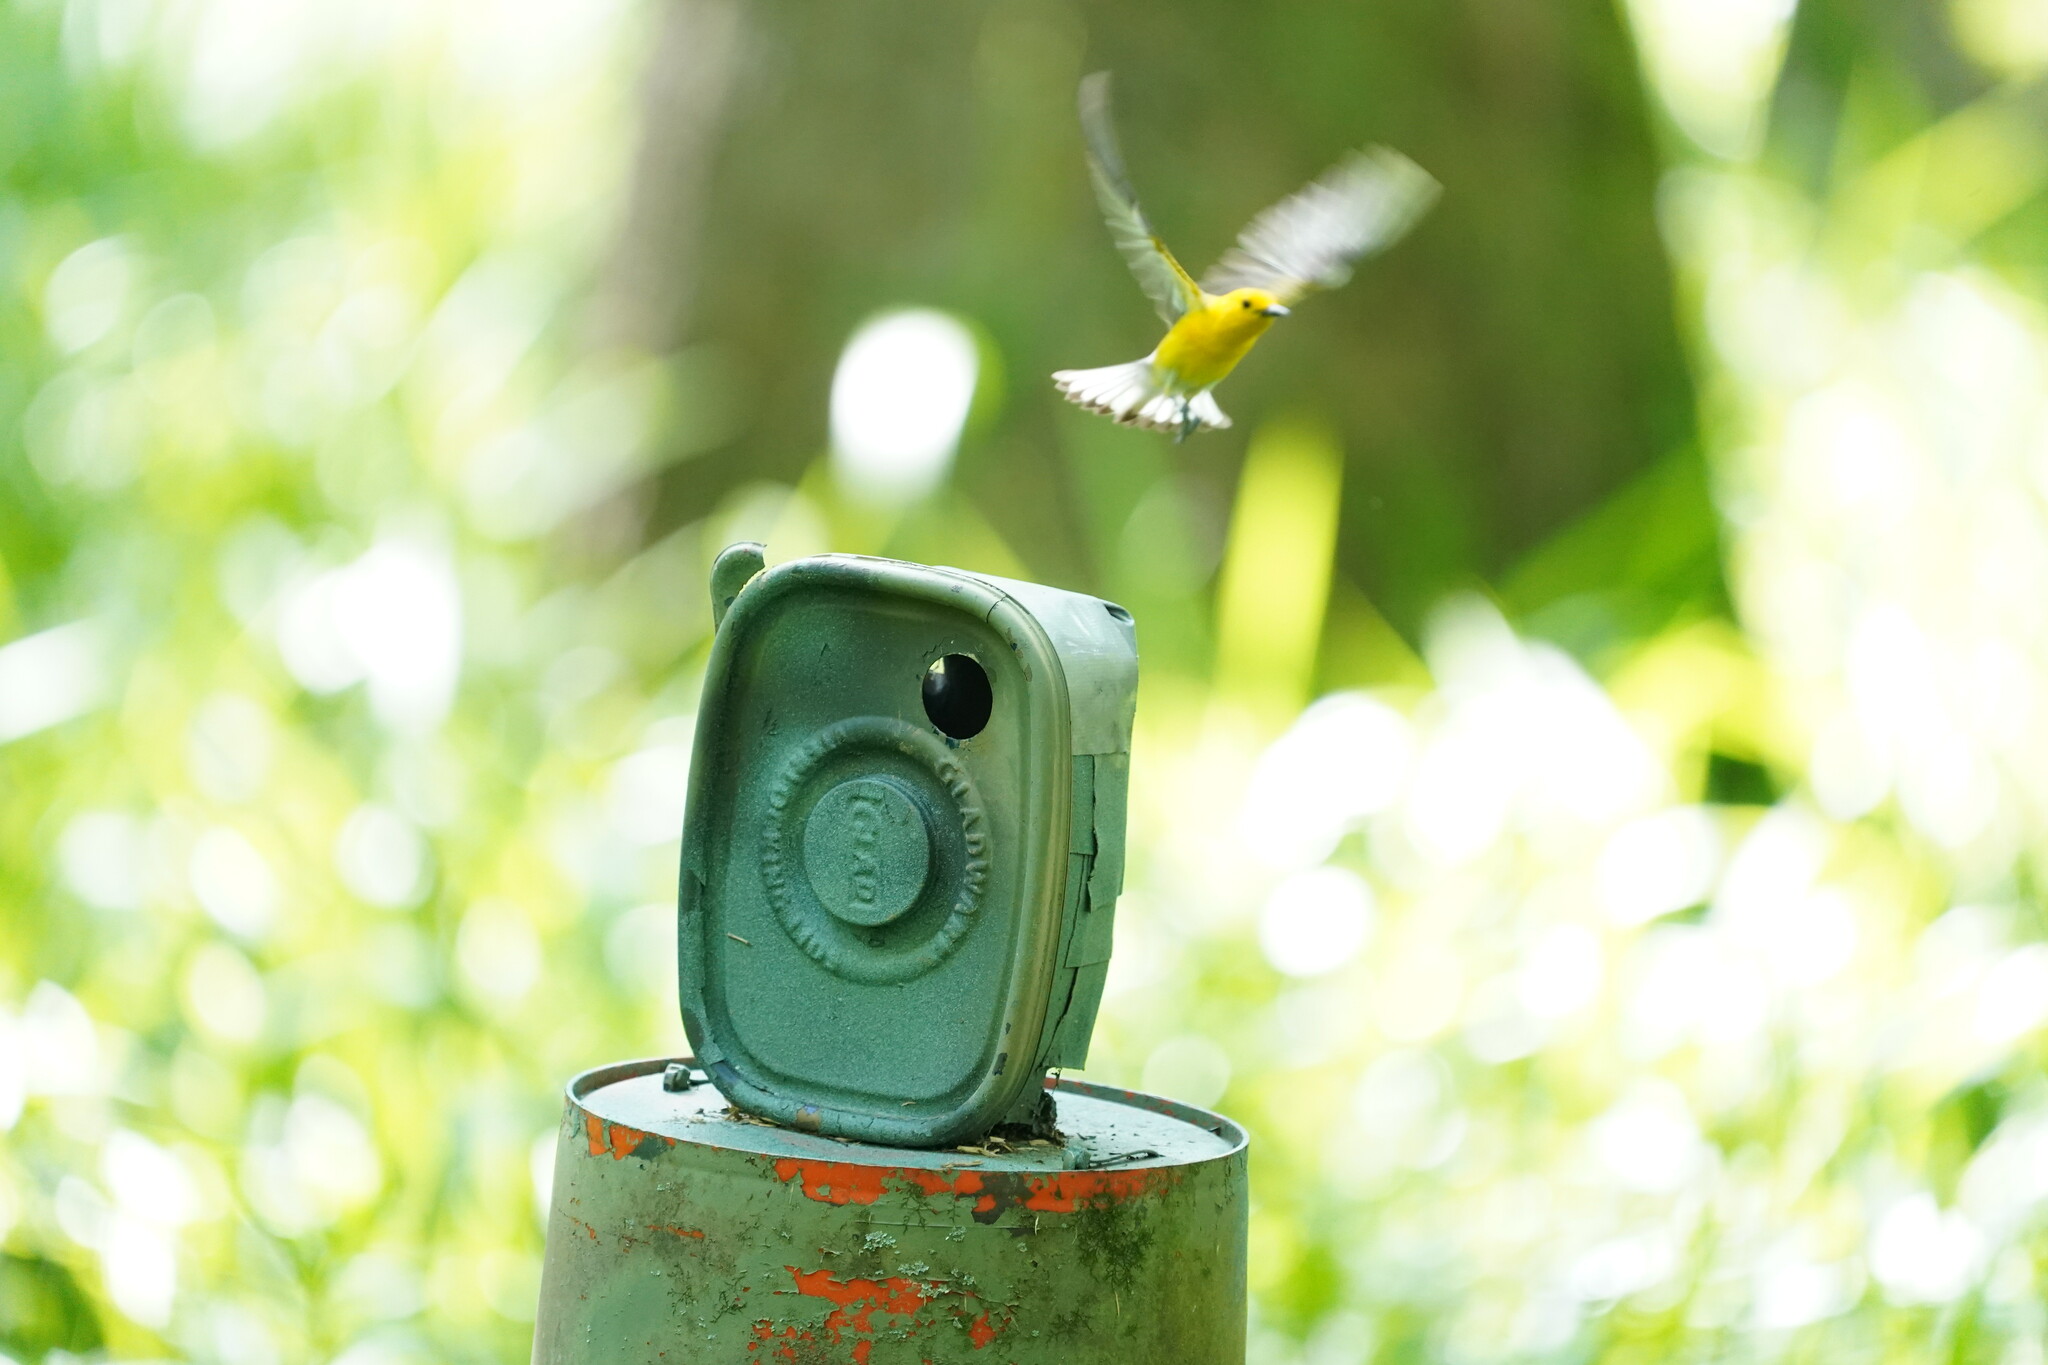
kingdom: Animalia
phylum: Chordata
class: Aves
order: Passeriformes
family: Parulidae
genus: Protonotaria
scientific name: Protonotaria citrea
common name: Prothonotary warbler
